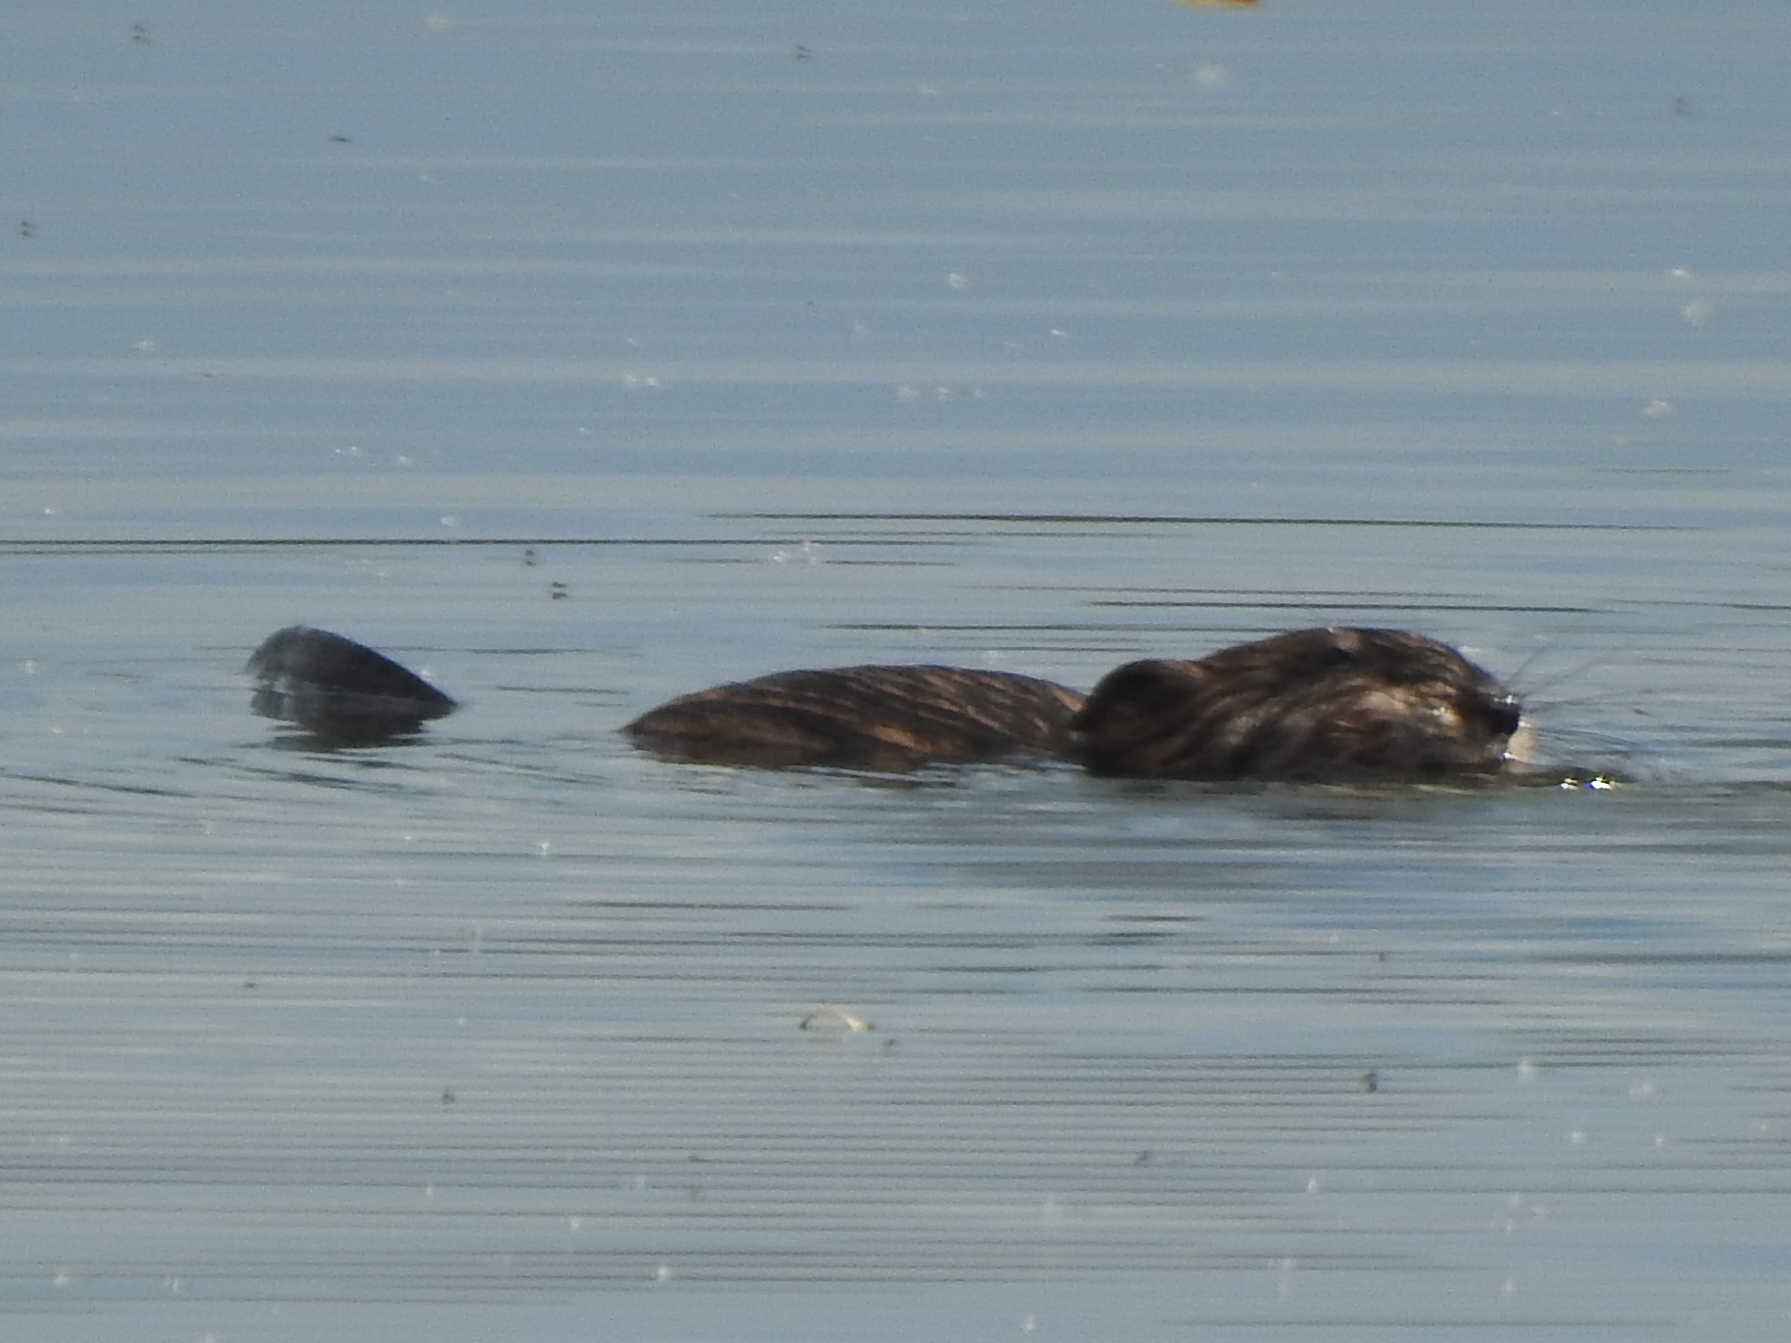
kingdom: Animalia
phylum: Chordata
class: Mammalia
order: Rodentia
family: Cricetidae
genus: Ondatra
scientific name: Ondatra zibethicus
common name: Muskrat
